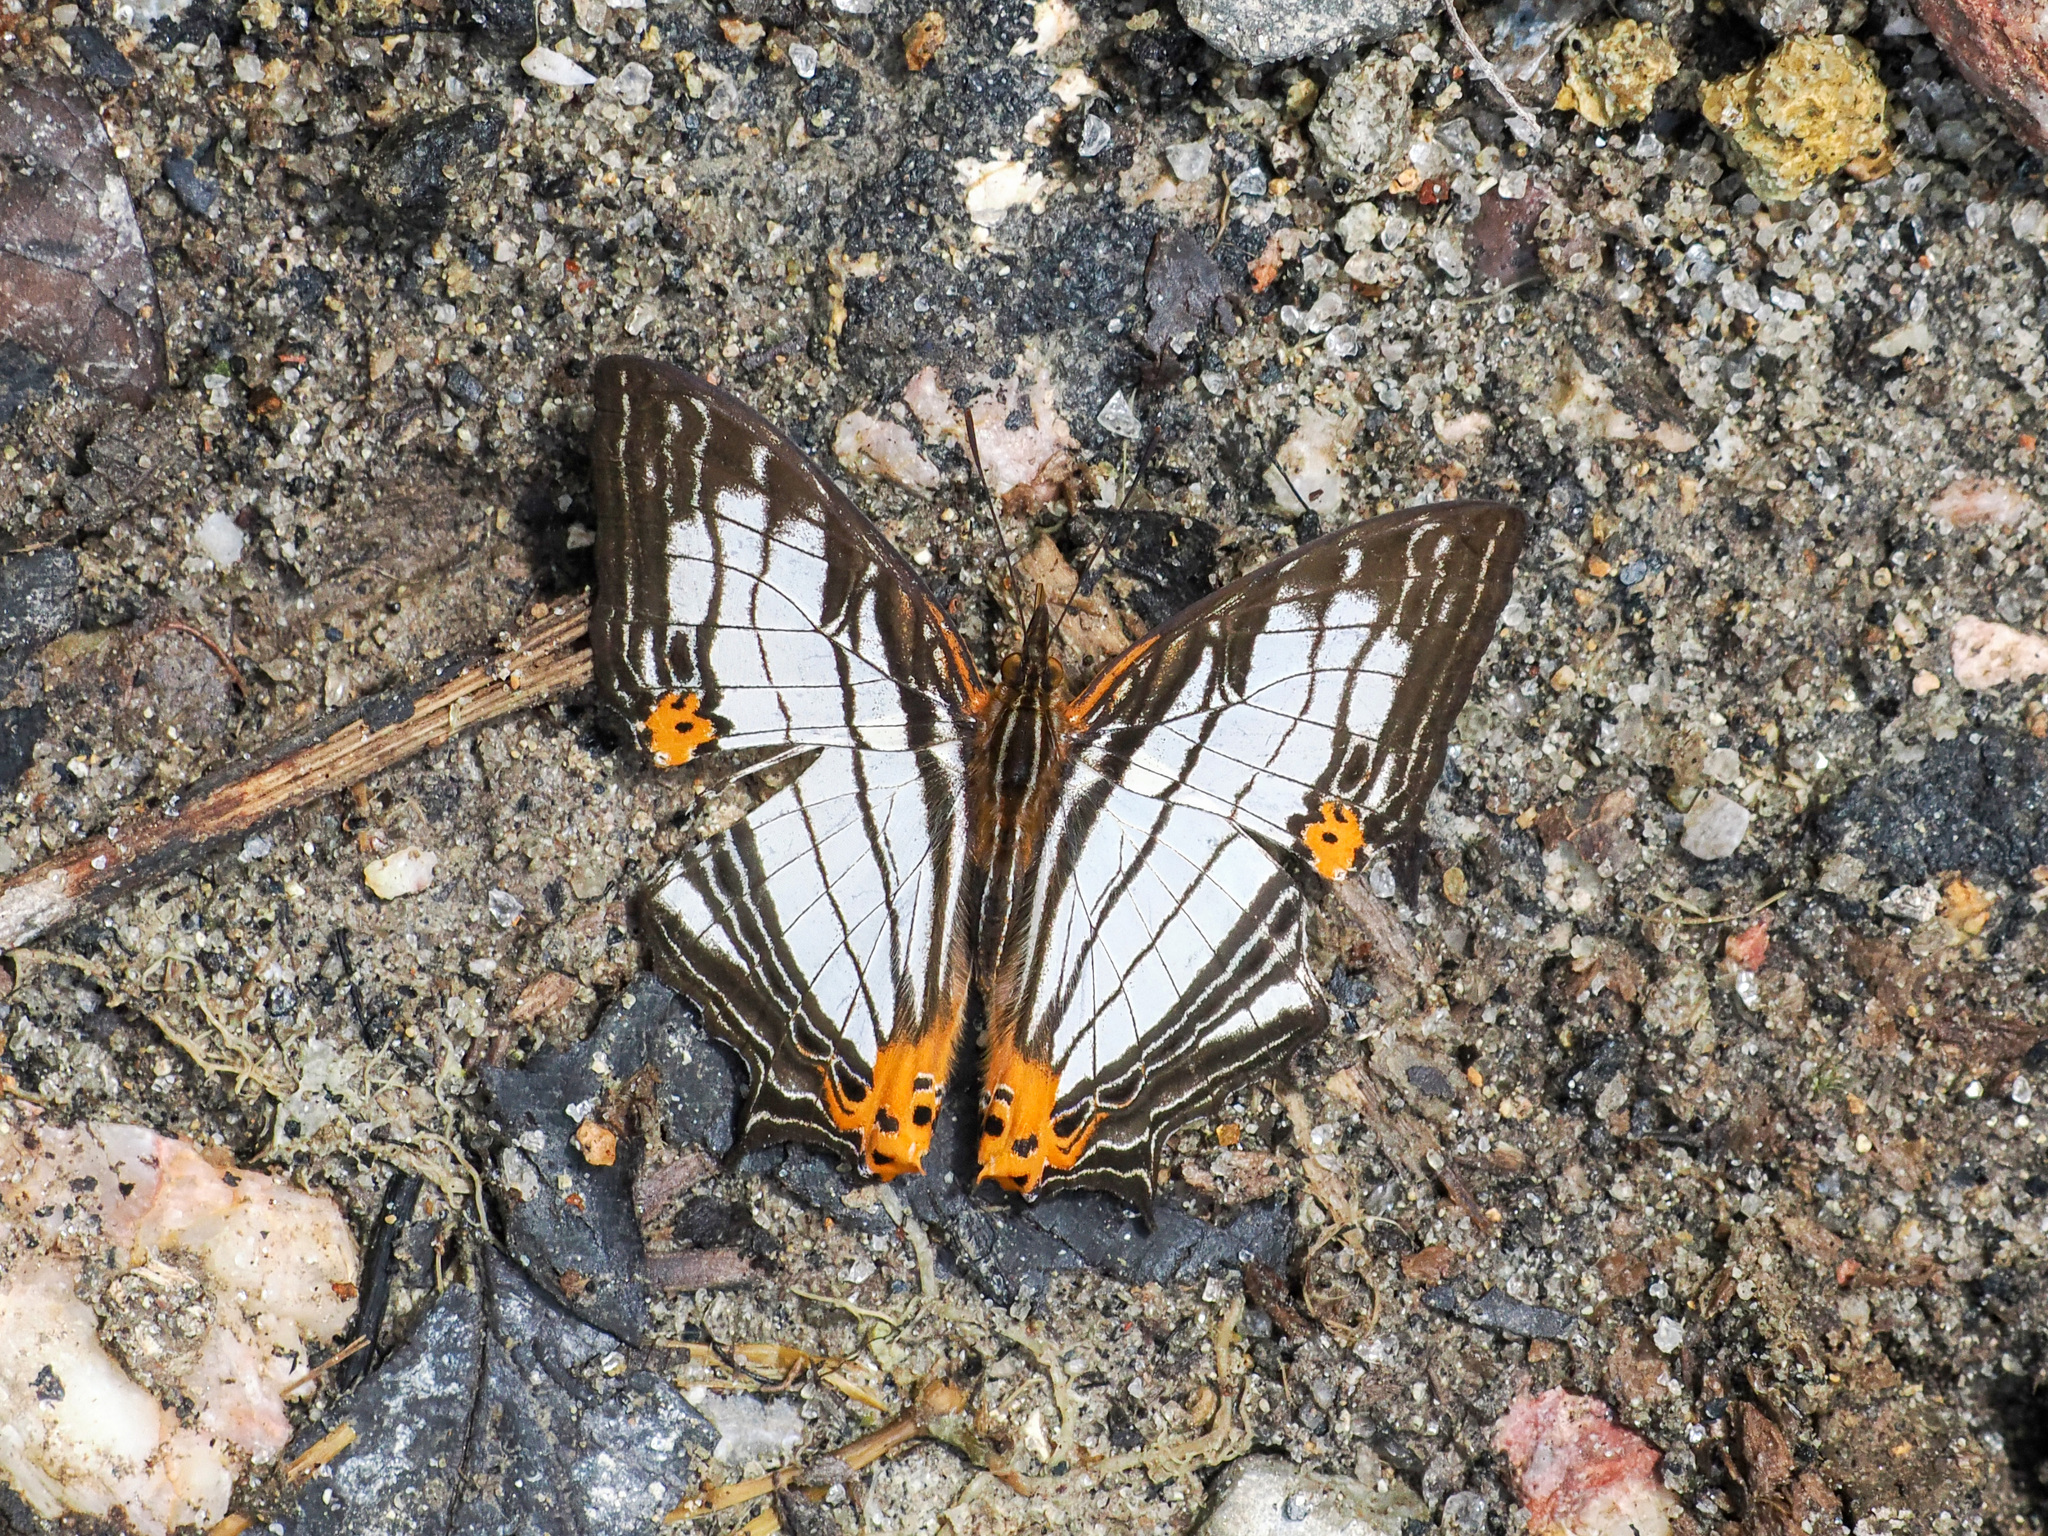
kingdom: Animalia
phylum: Arthropoda
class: Insecta
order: Lepidoptera
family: Nymphalidae
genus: Cyrestis
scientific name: Cyrestis maenalis
